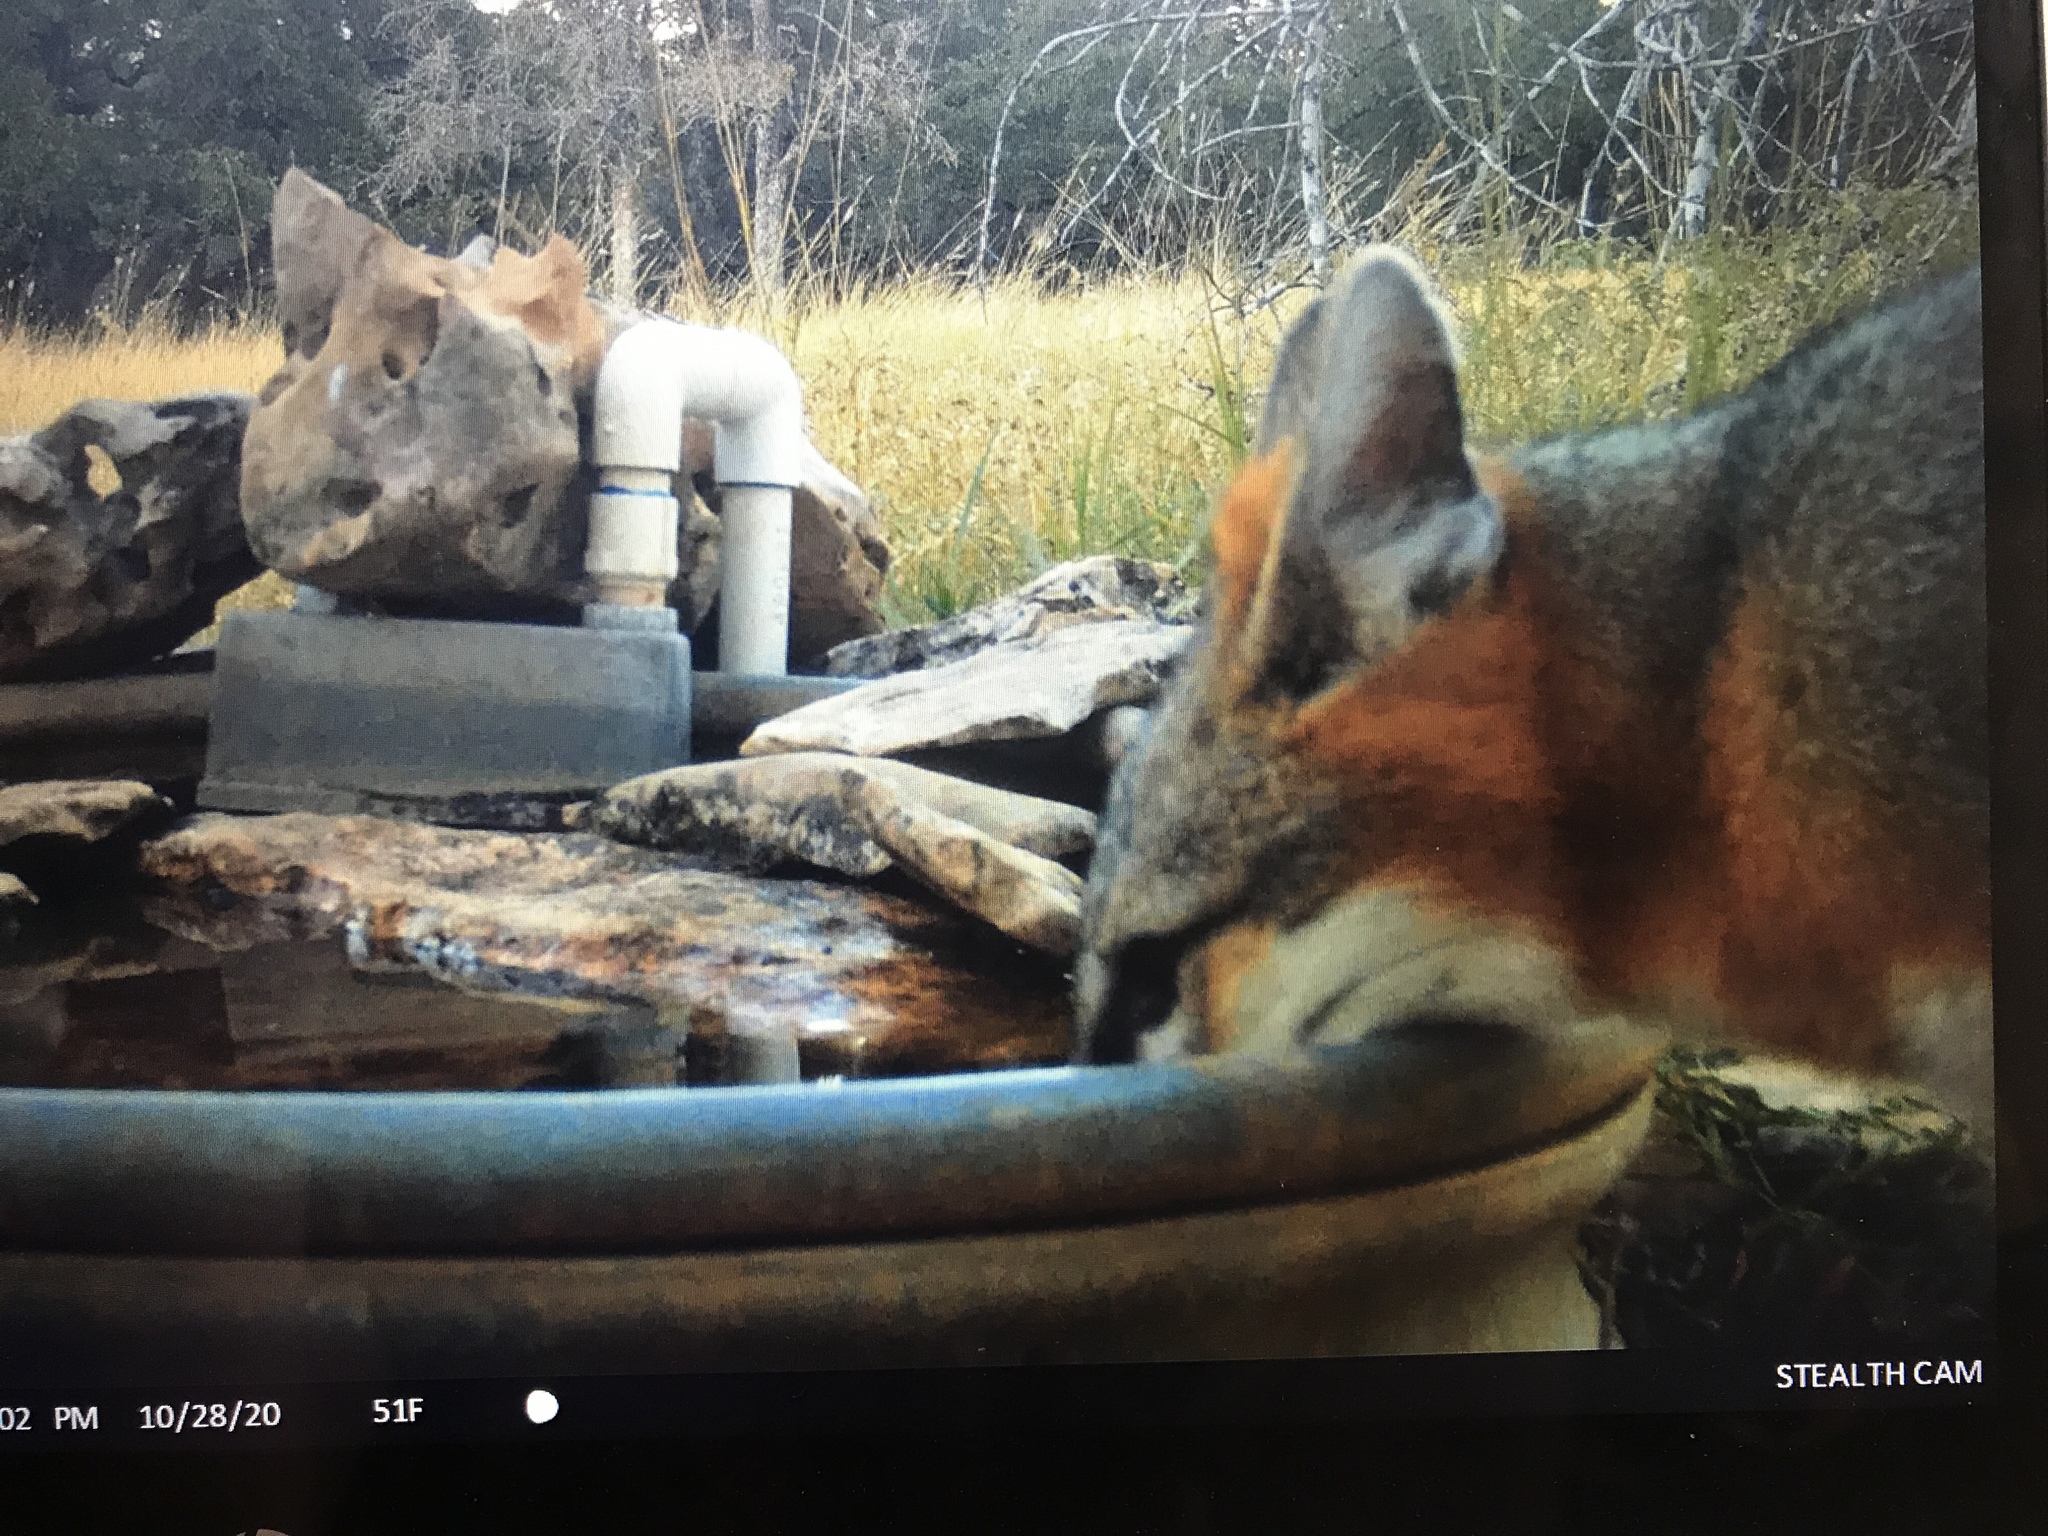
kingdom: Animalia
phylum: Chordata
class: Mammalia
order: Carnivora
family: Canidae
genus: Urocyon
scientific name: Urocyon cinereoargenteus
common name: Gray fox
